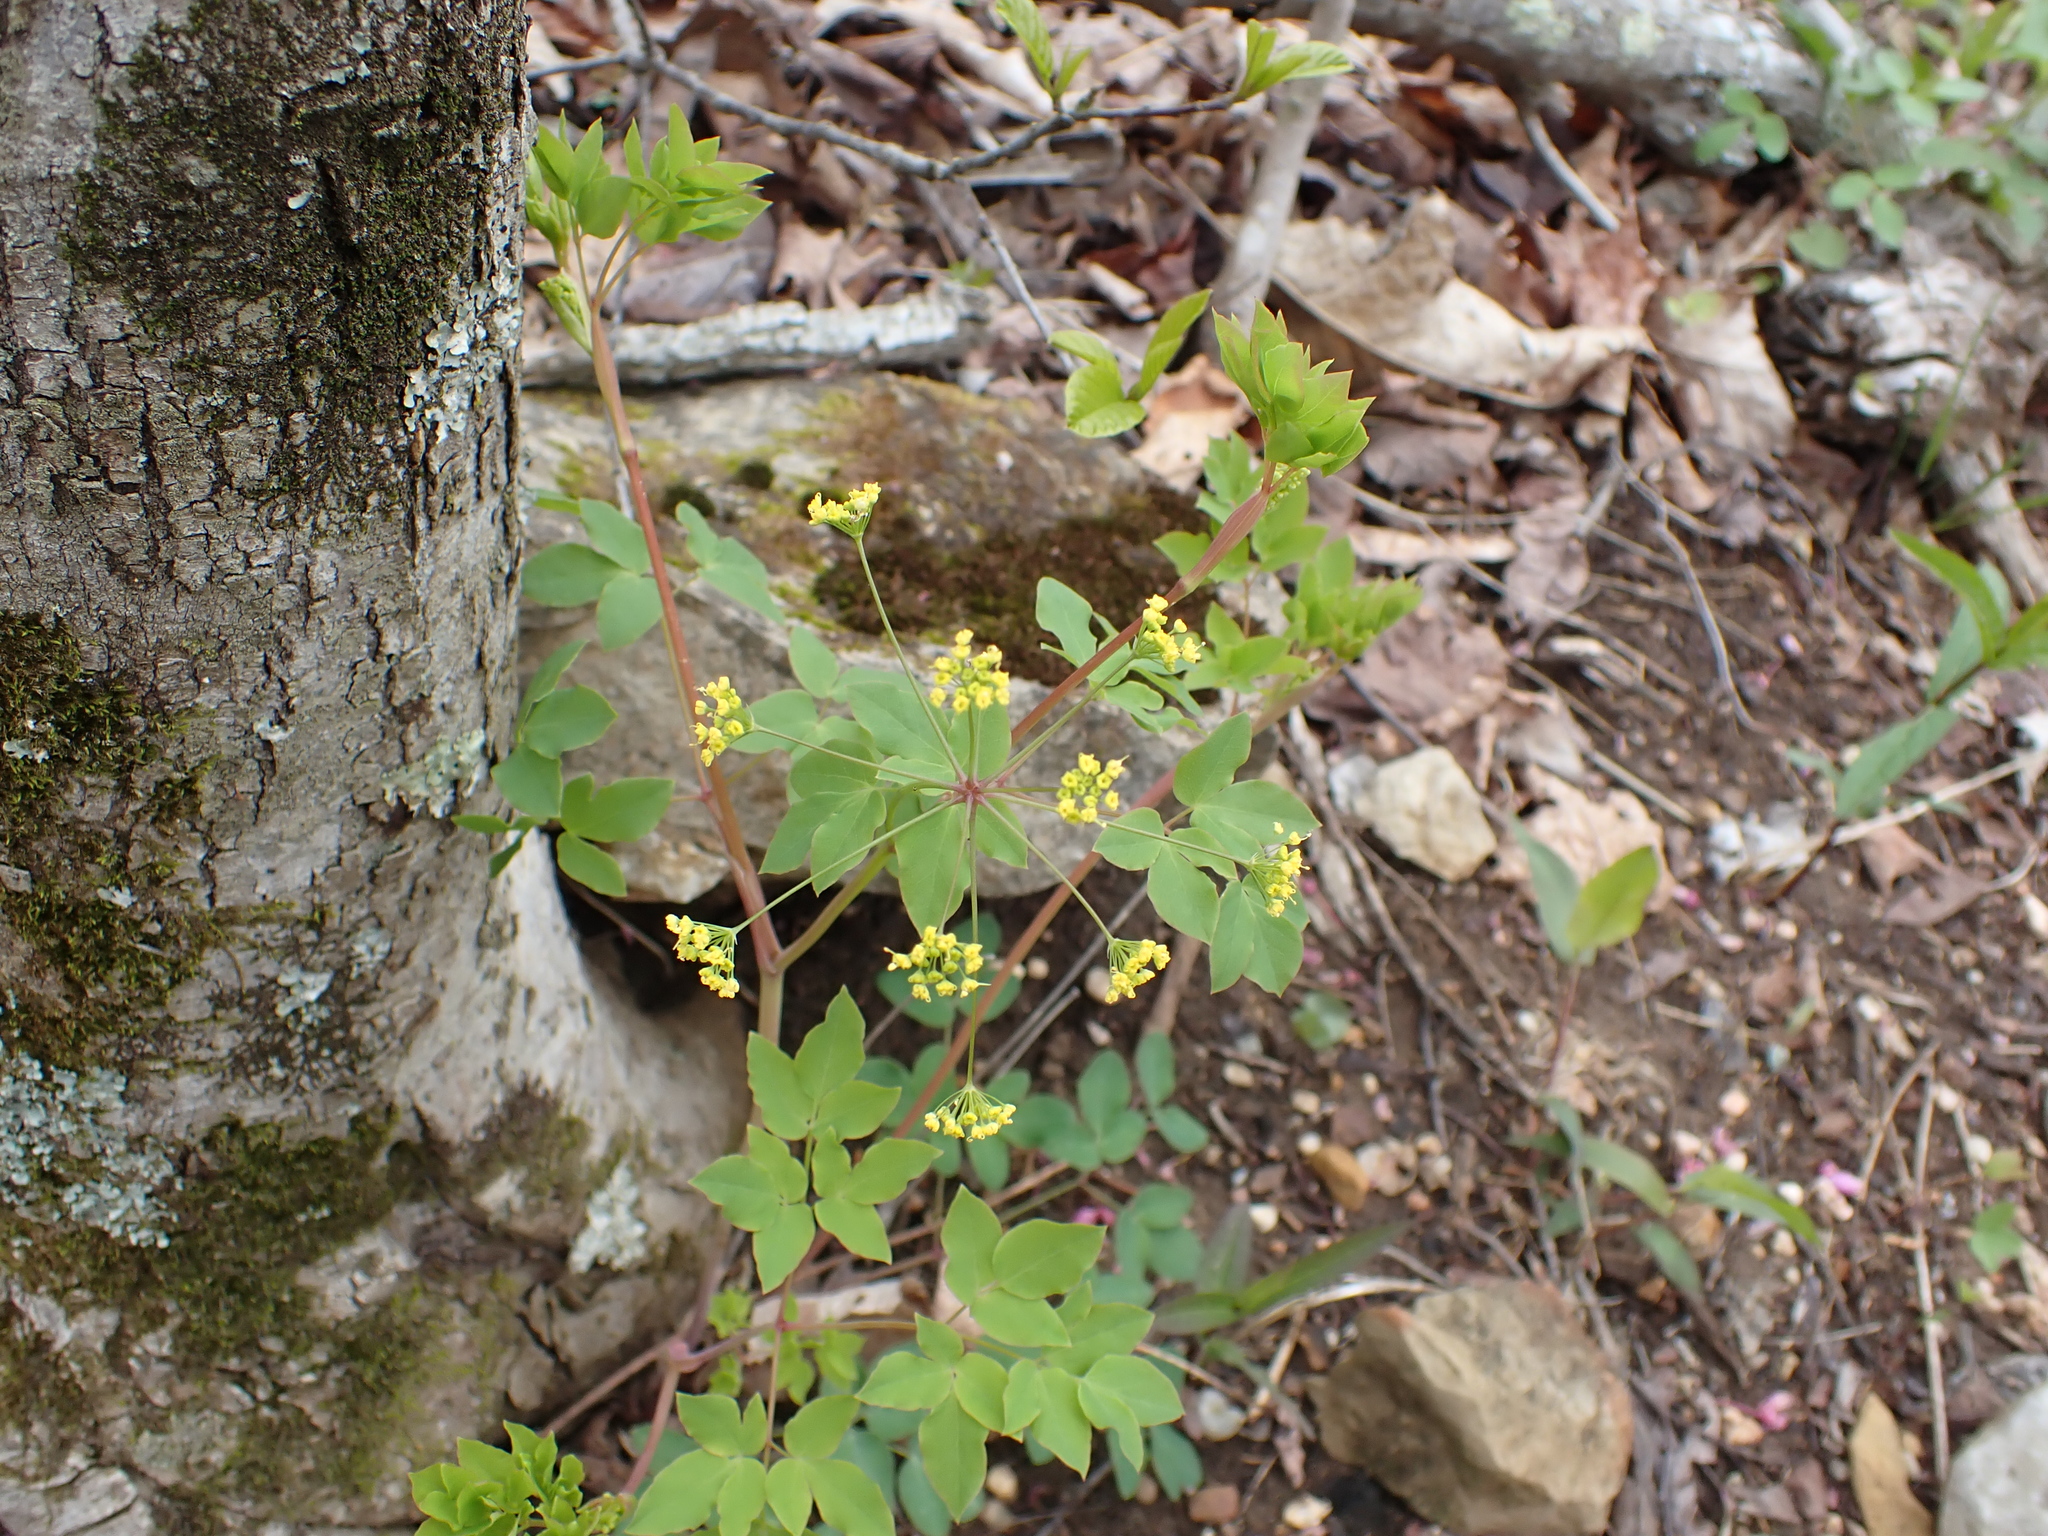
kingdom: Plantae
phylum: Tracheophyta
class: Magnoliopsida
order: Apiales
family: Apiaceae
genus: Taenidia
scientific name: Taenidia integerrima
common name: Golden alexander
